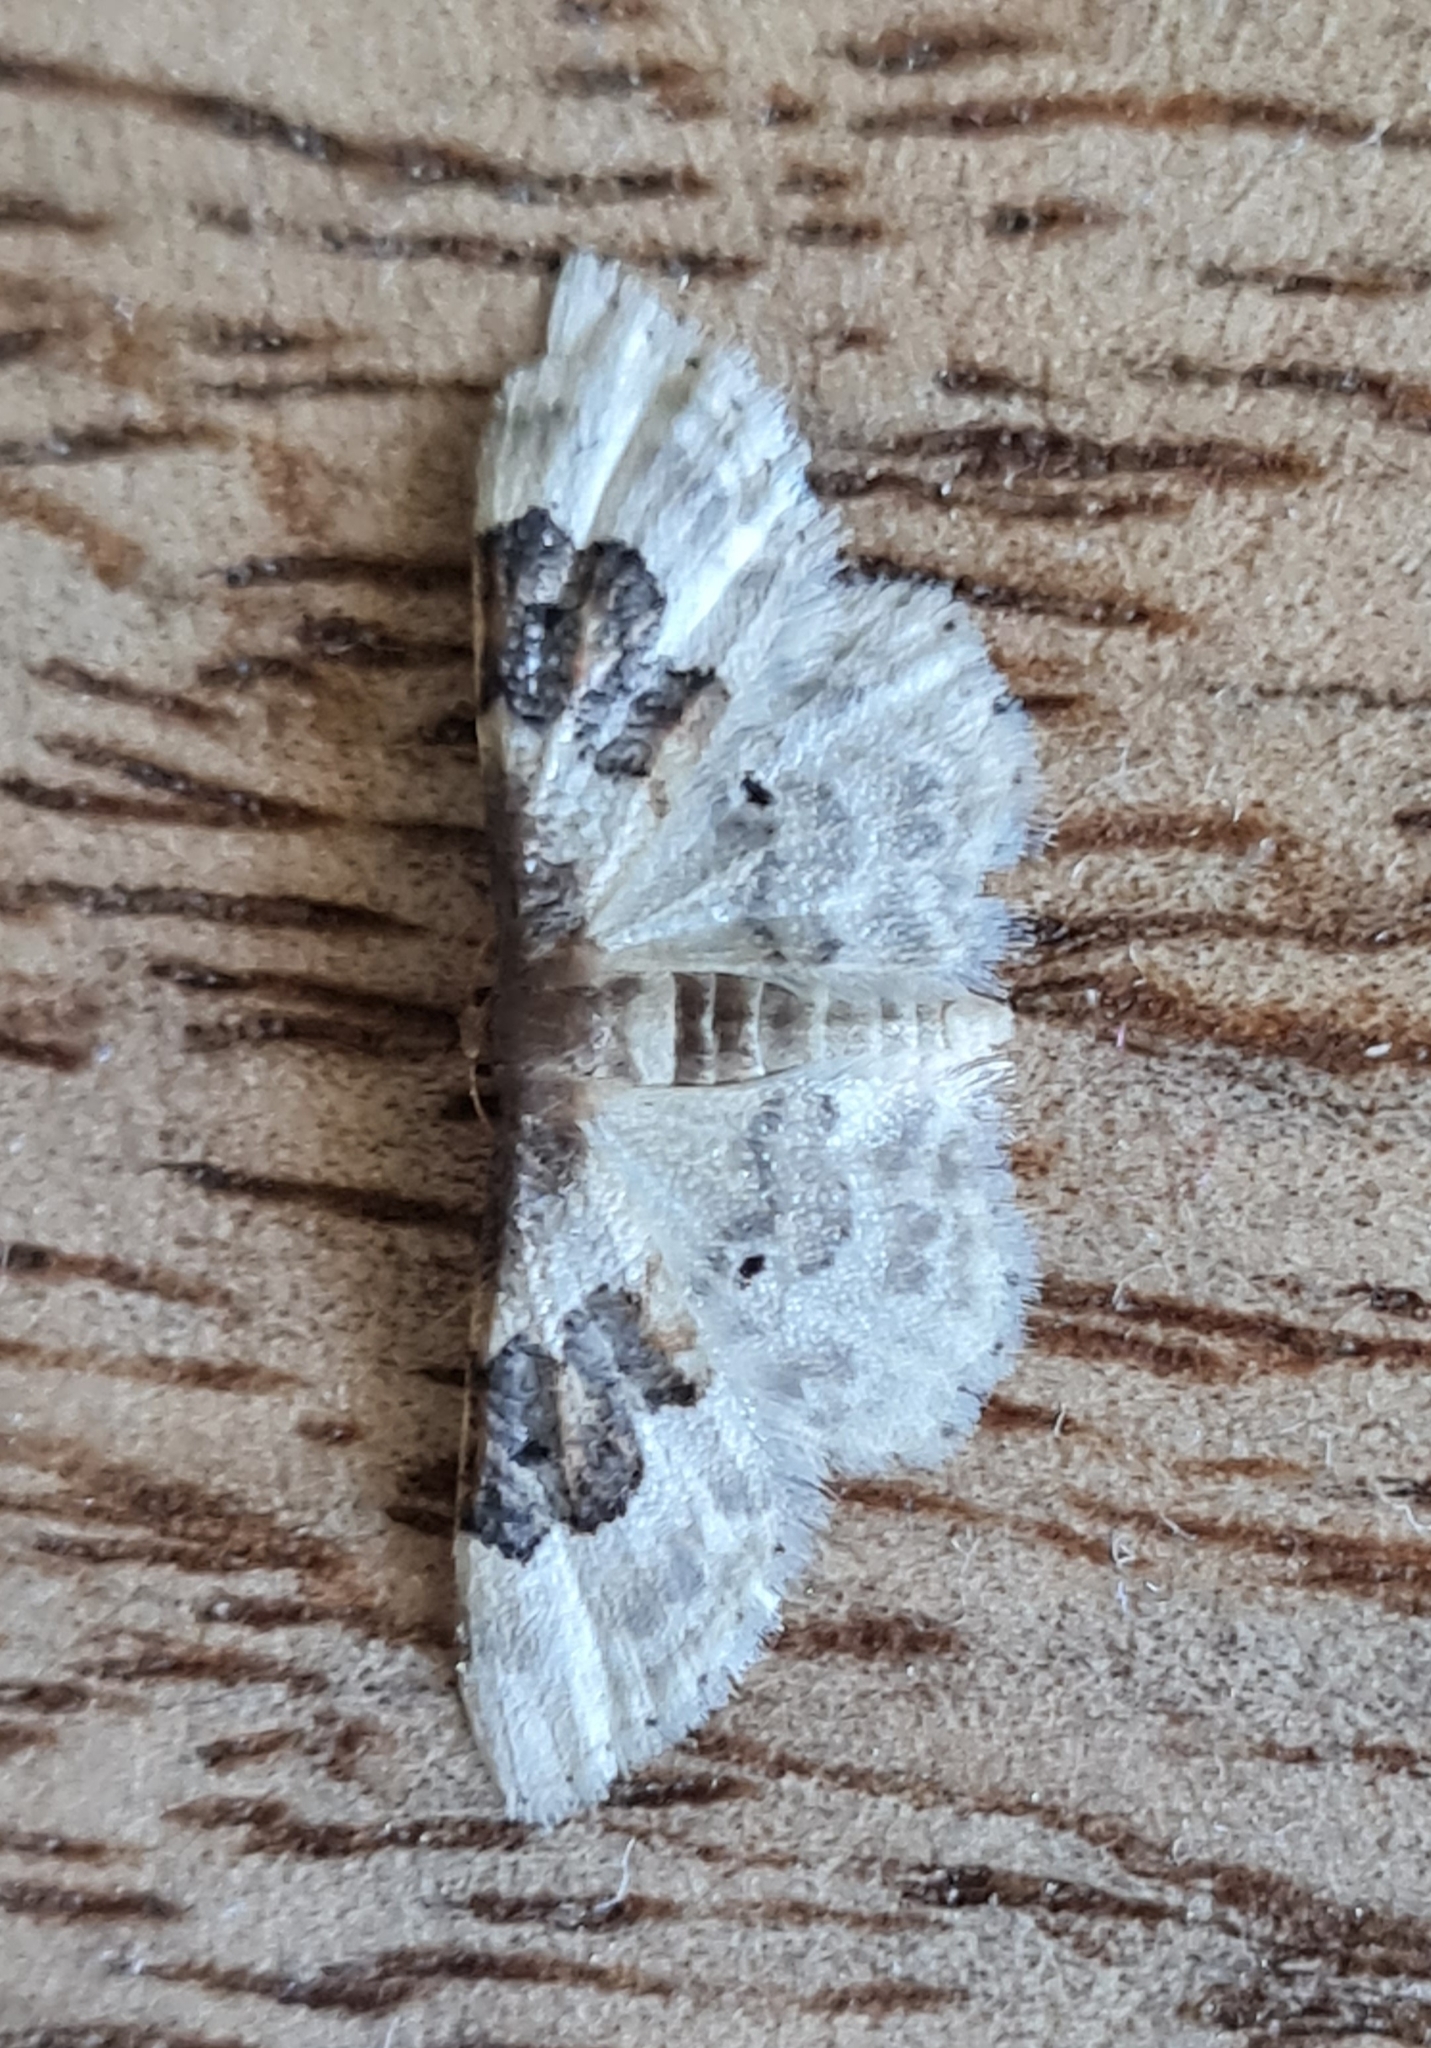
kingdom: Animalia
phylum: Arthropoda
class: Insecta
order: Lepidoptera
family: Geometridae
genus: Idaea
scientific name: Idaea rusticata
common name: Least carpet
